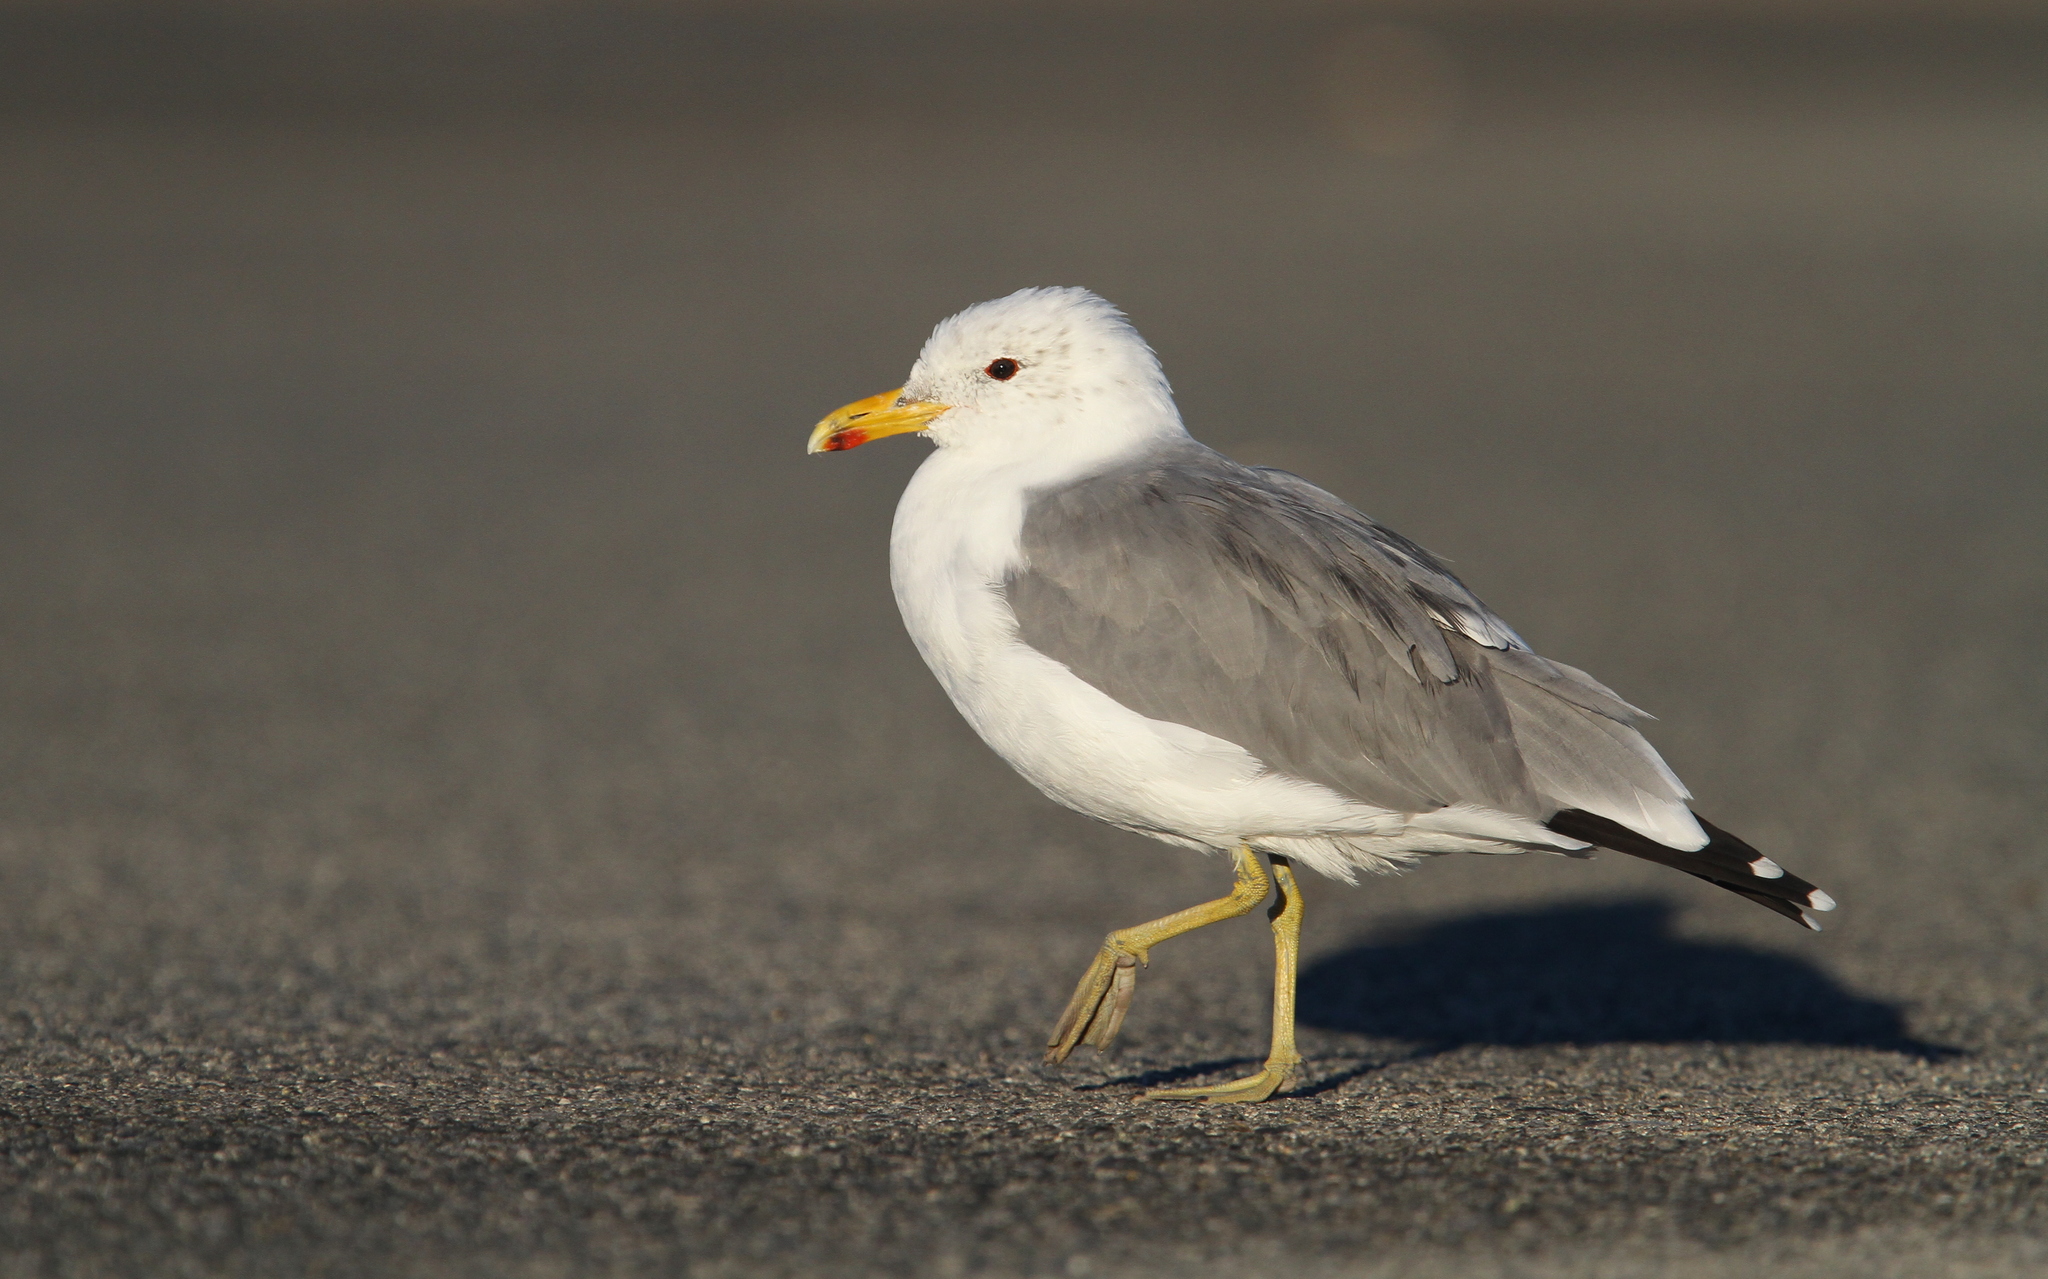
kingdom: Animalia
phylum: Chordata
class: Aves
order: Charadriiformes
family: Laridae
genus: Larus
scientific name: Larus californicus
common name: California gull
